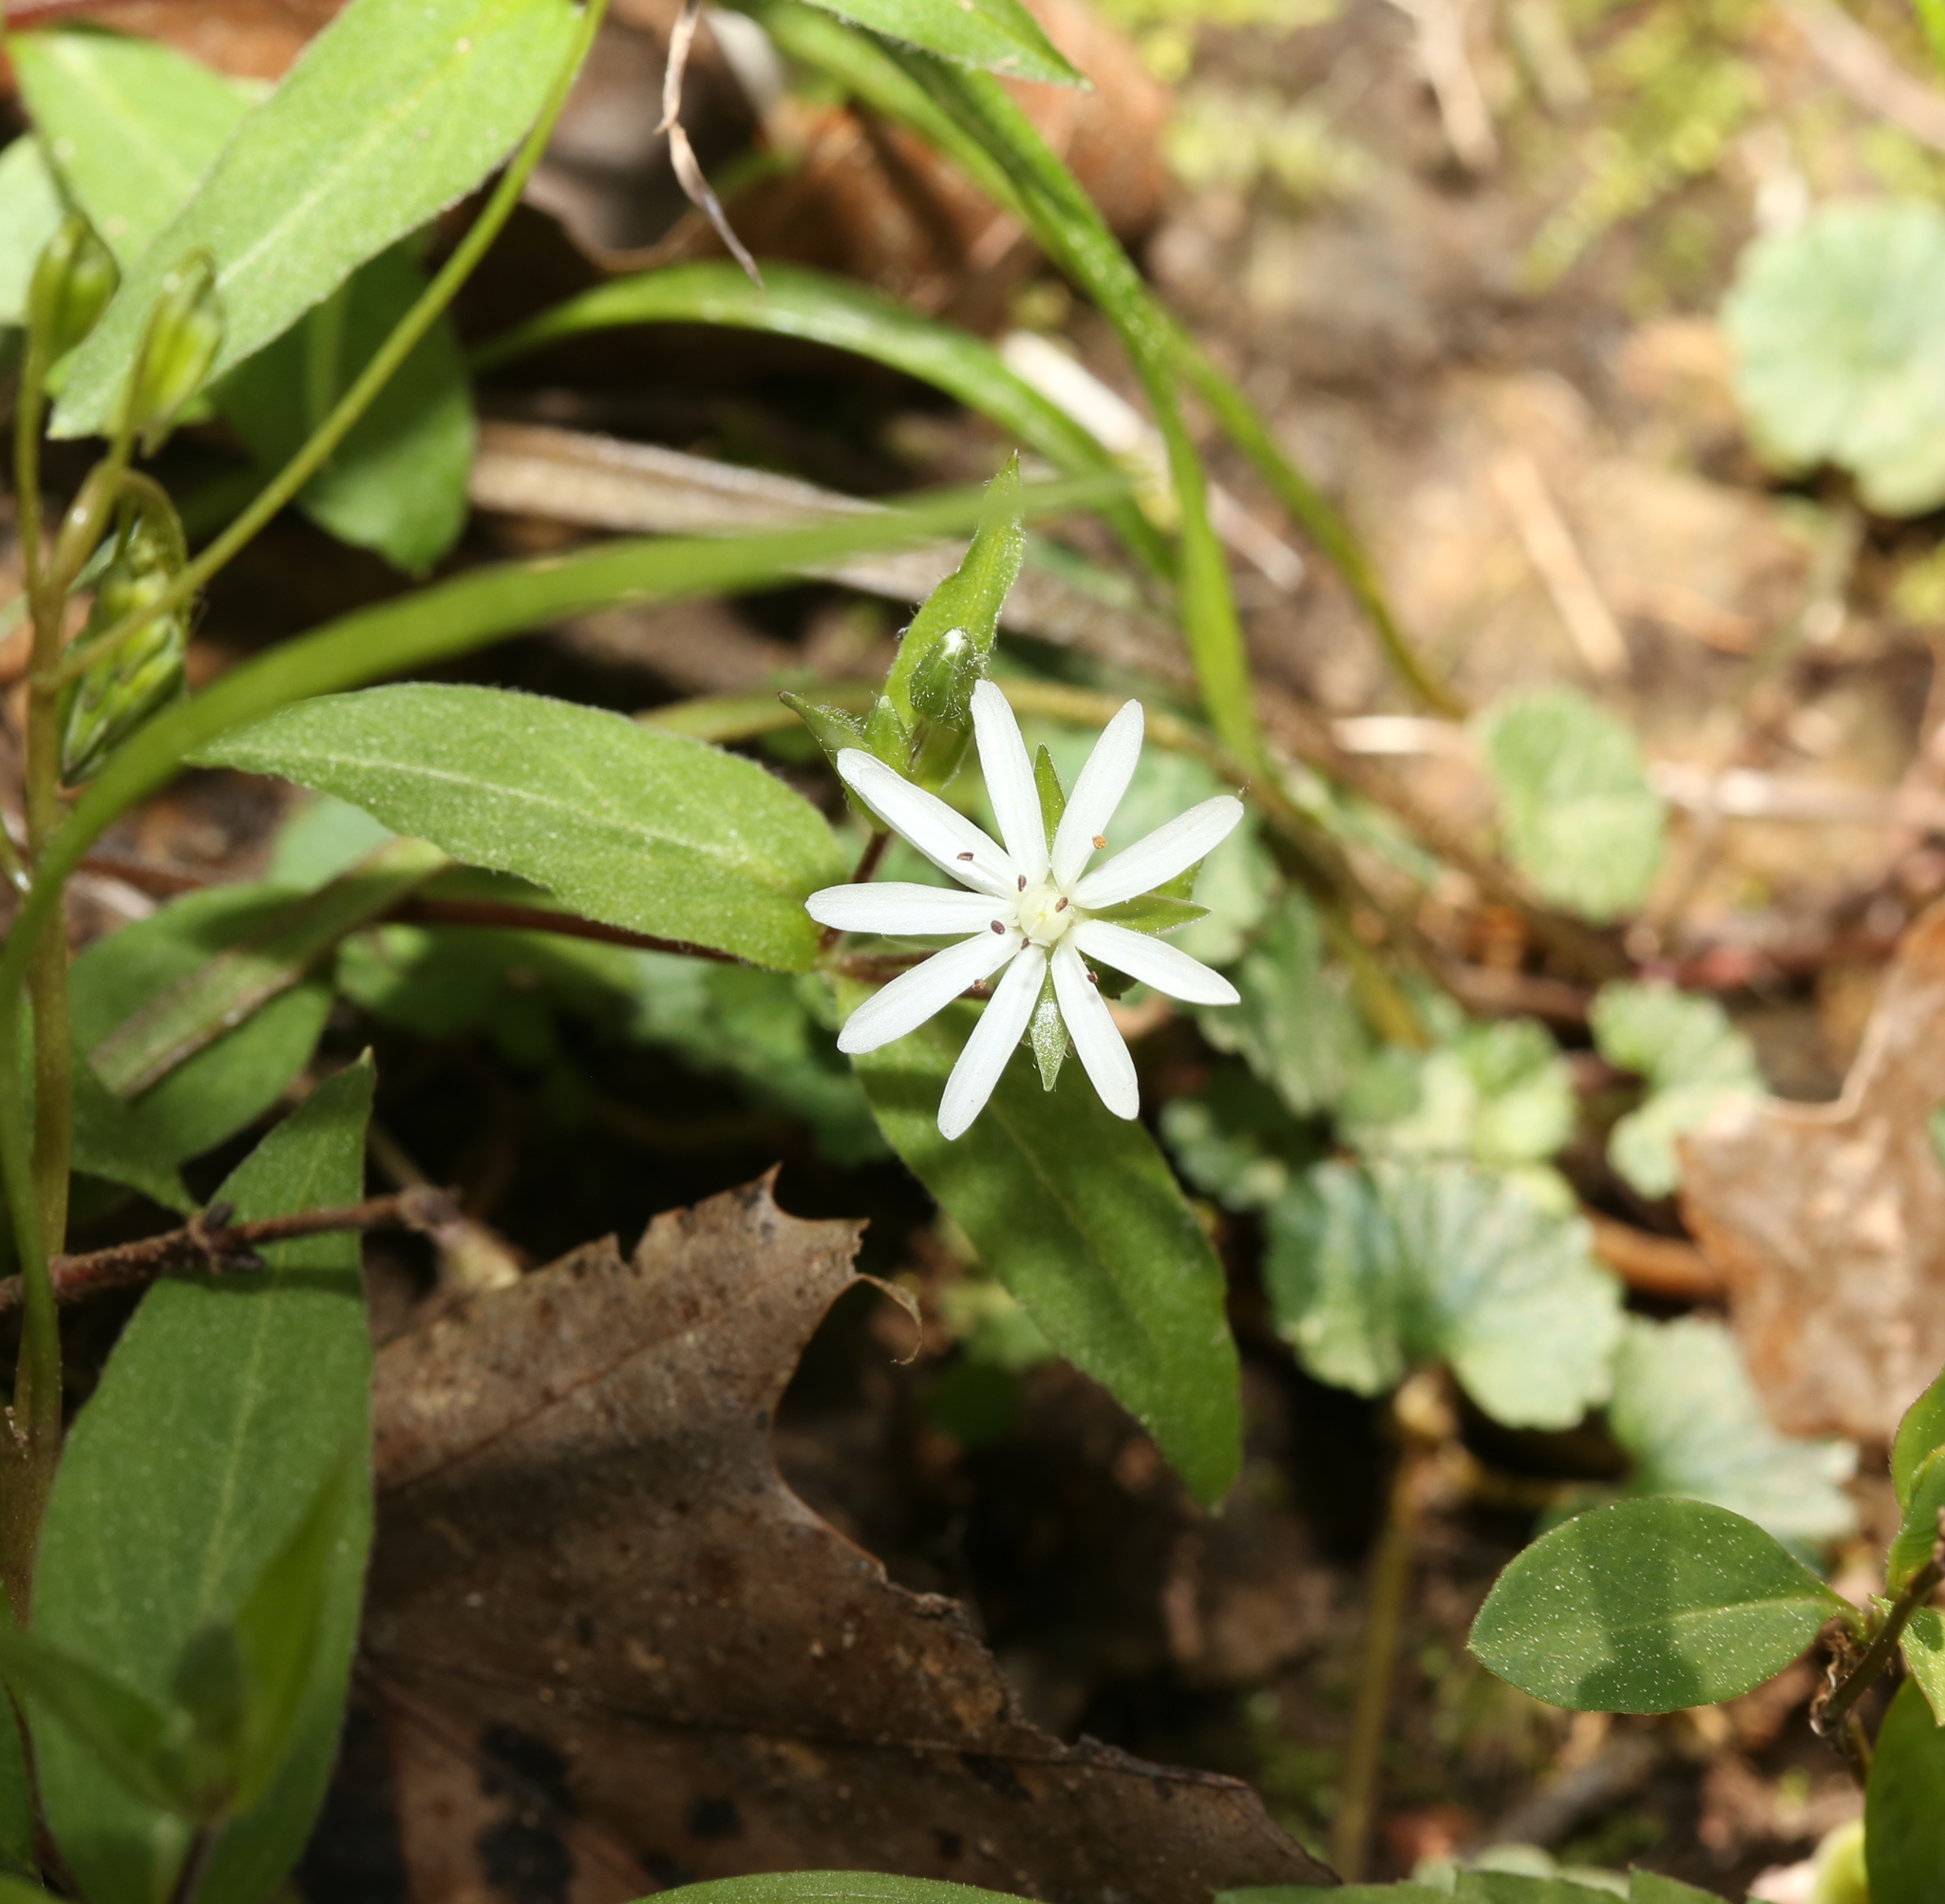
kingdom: Plantae
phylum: Tracheophyta
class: Magnoliopsida
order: Caryophyllales
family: Caryophyllaceae
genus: Stellaria
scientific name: Stellaria pubera
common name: Star chickweed
